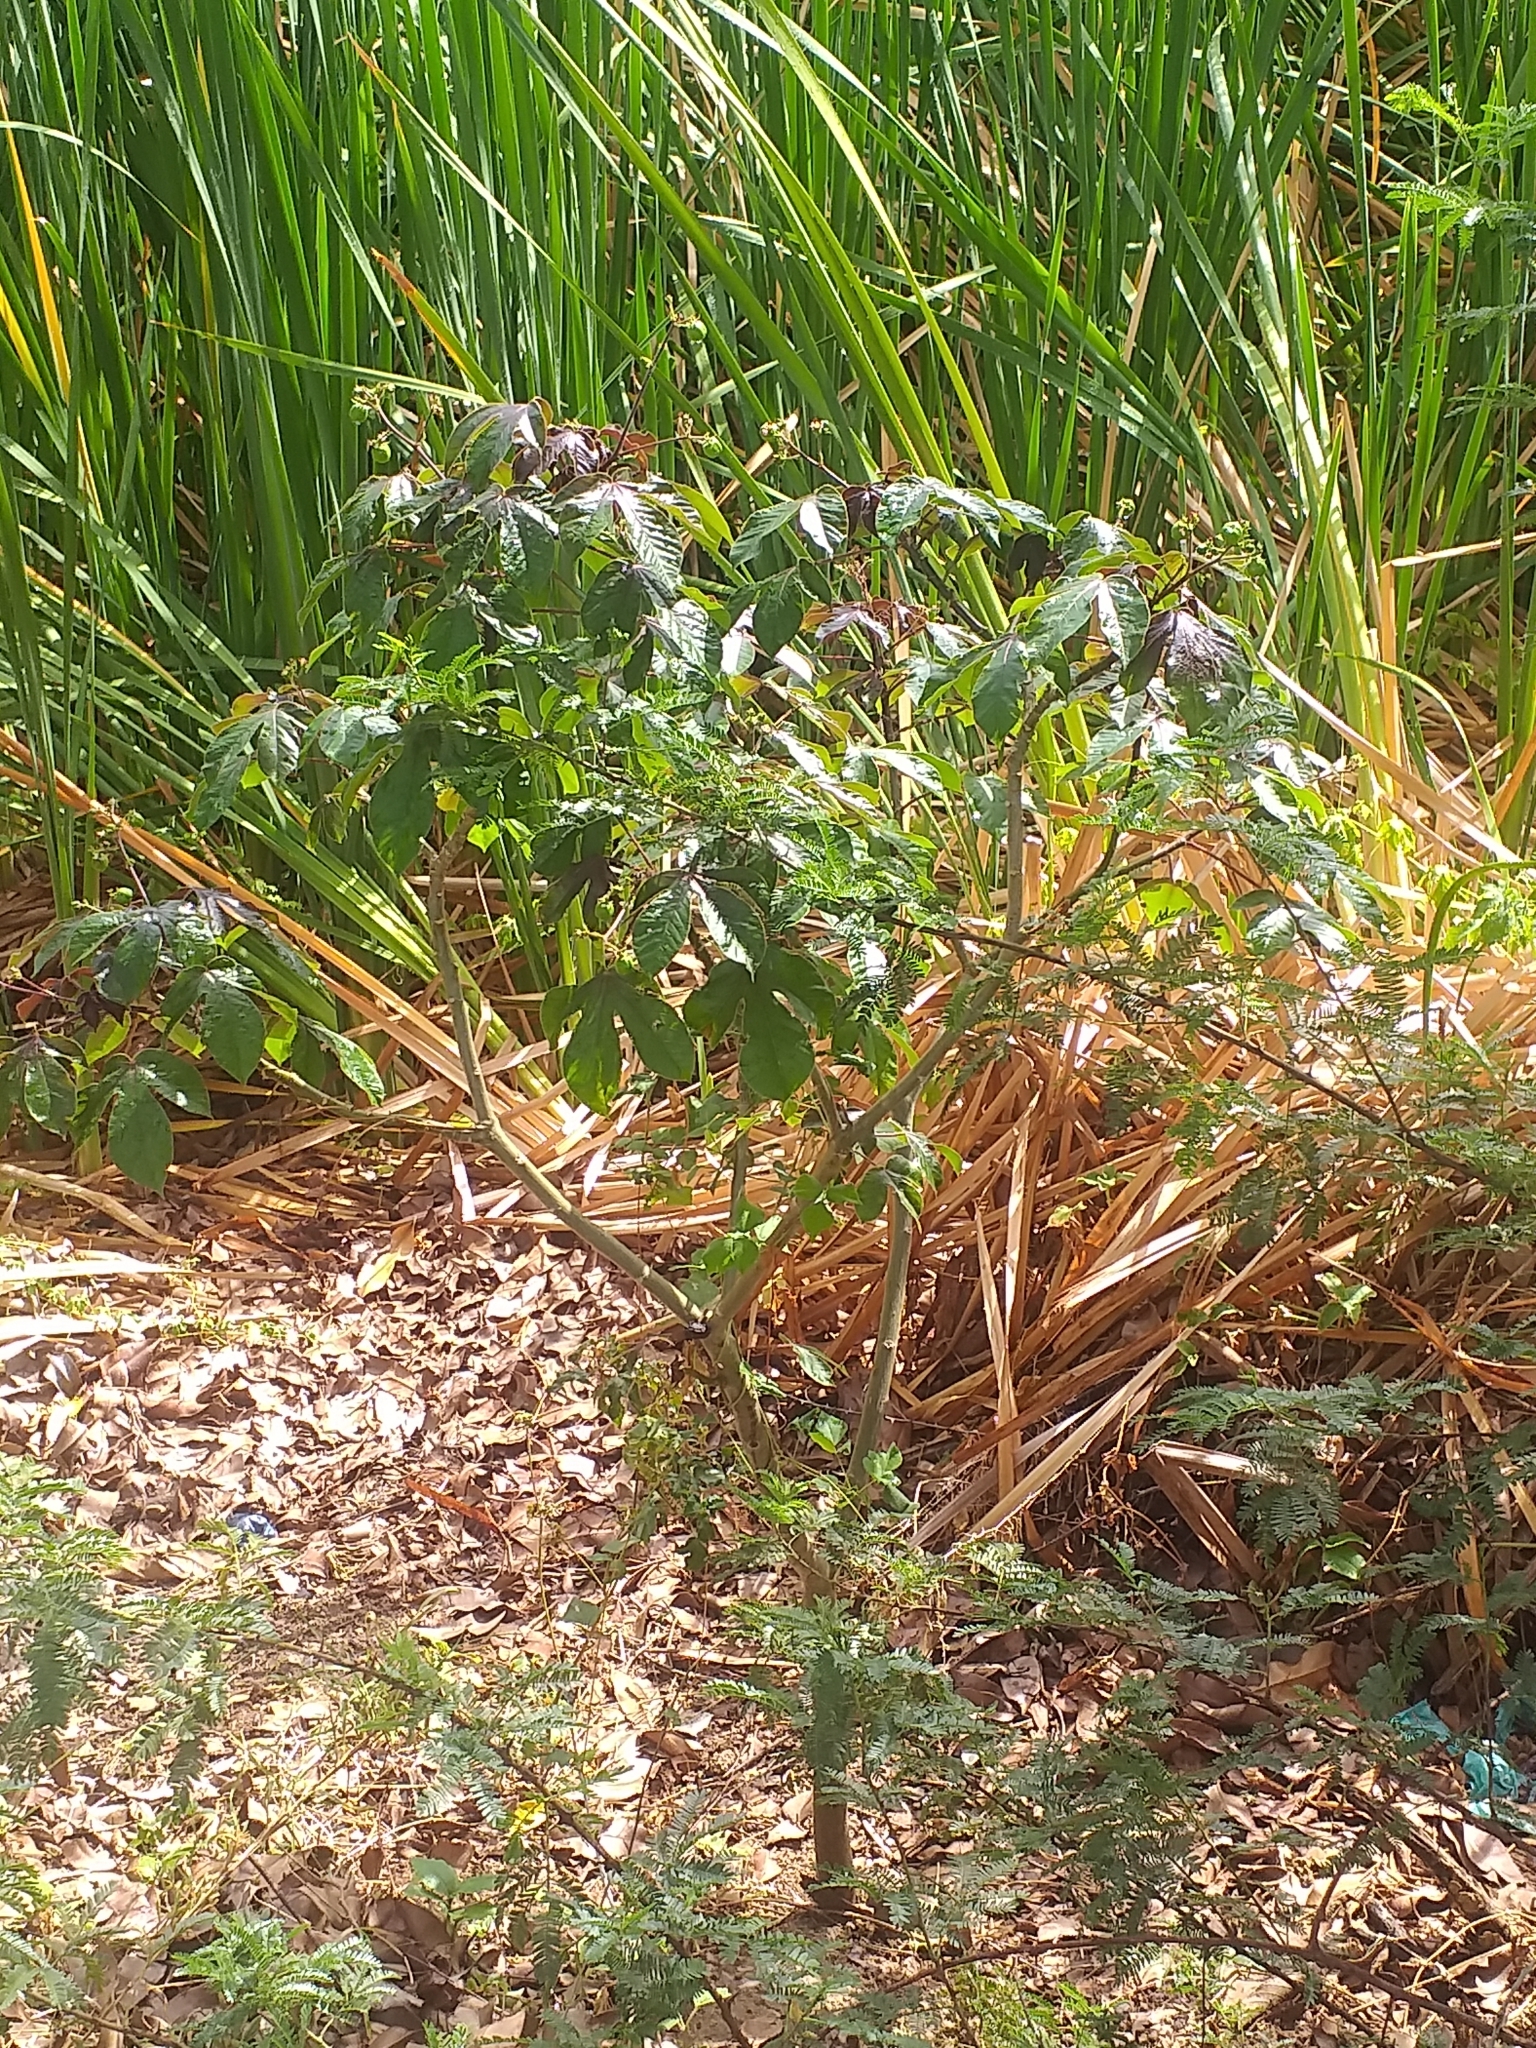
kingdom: Plantae
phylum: Tracheophyta
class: Magnoliopsida
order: Malpighiales
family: Euphorbiaceae
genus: Jatropha
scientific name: Jatropha gossypiifolia
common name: Bellyache bush
